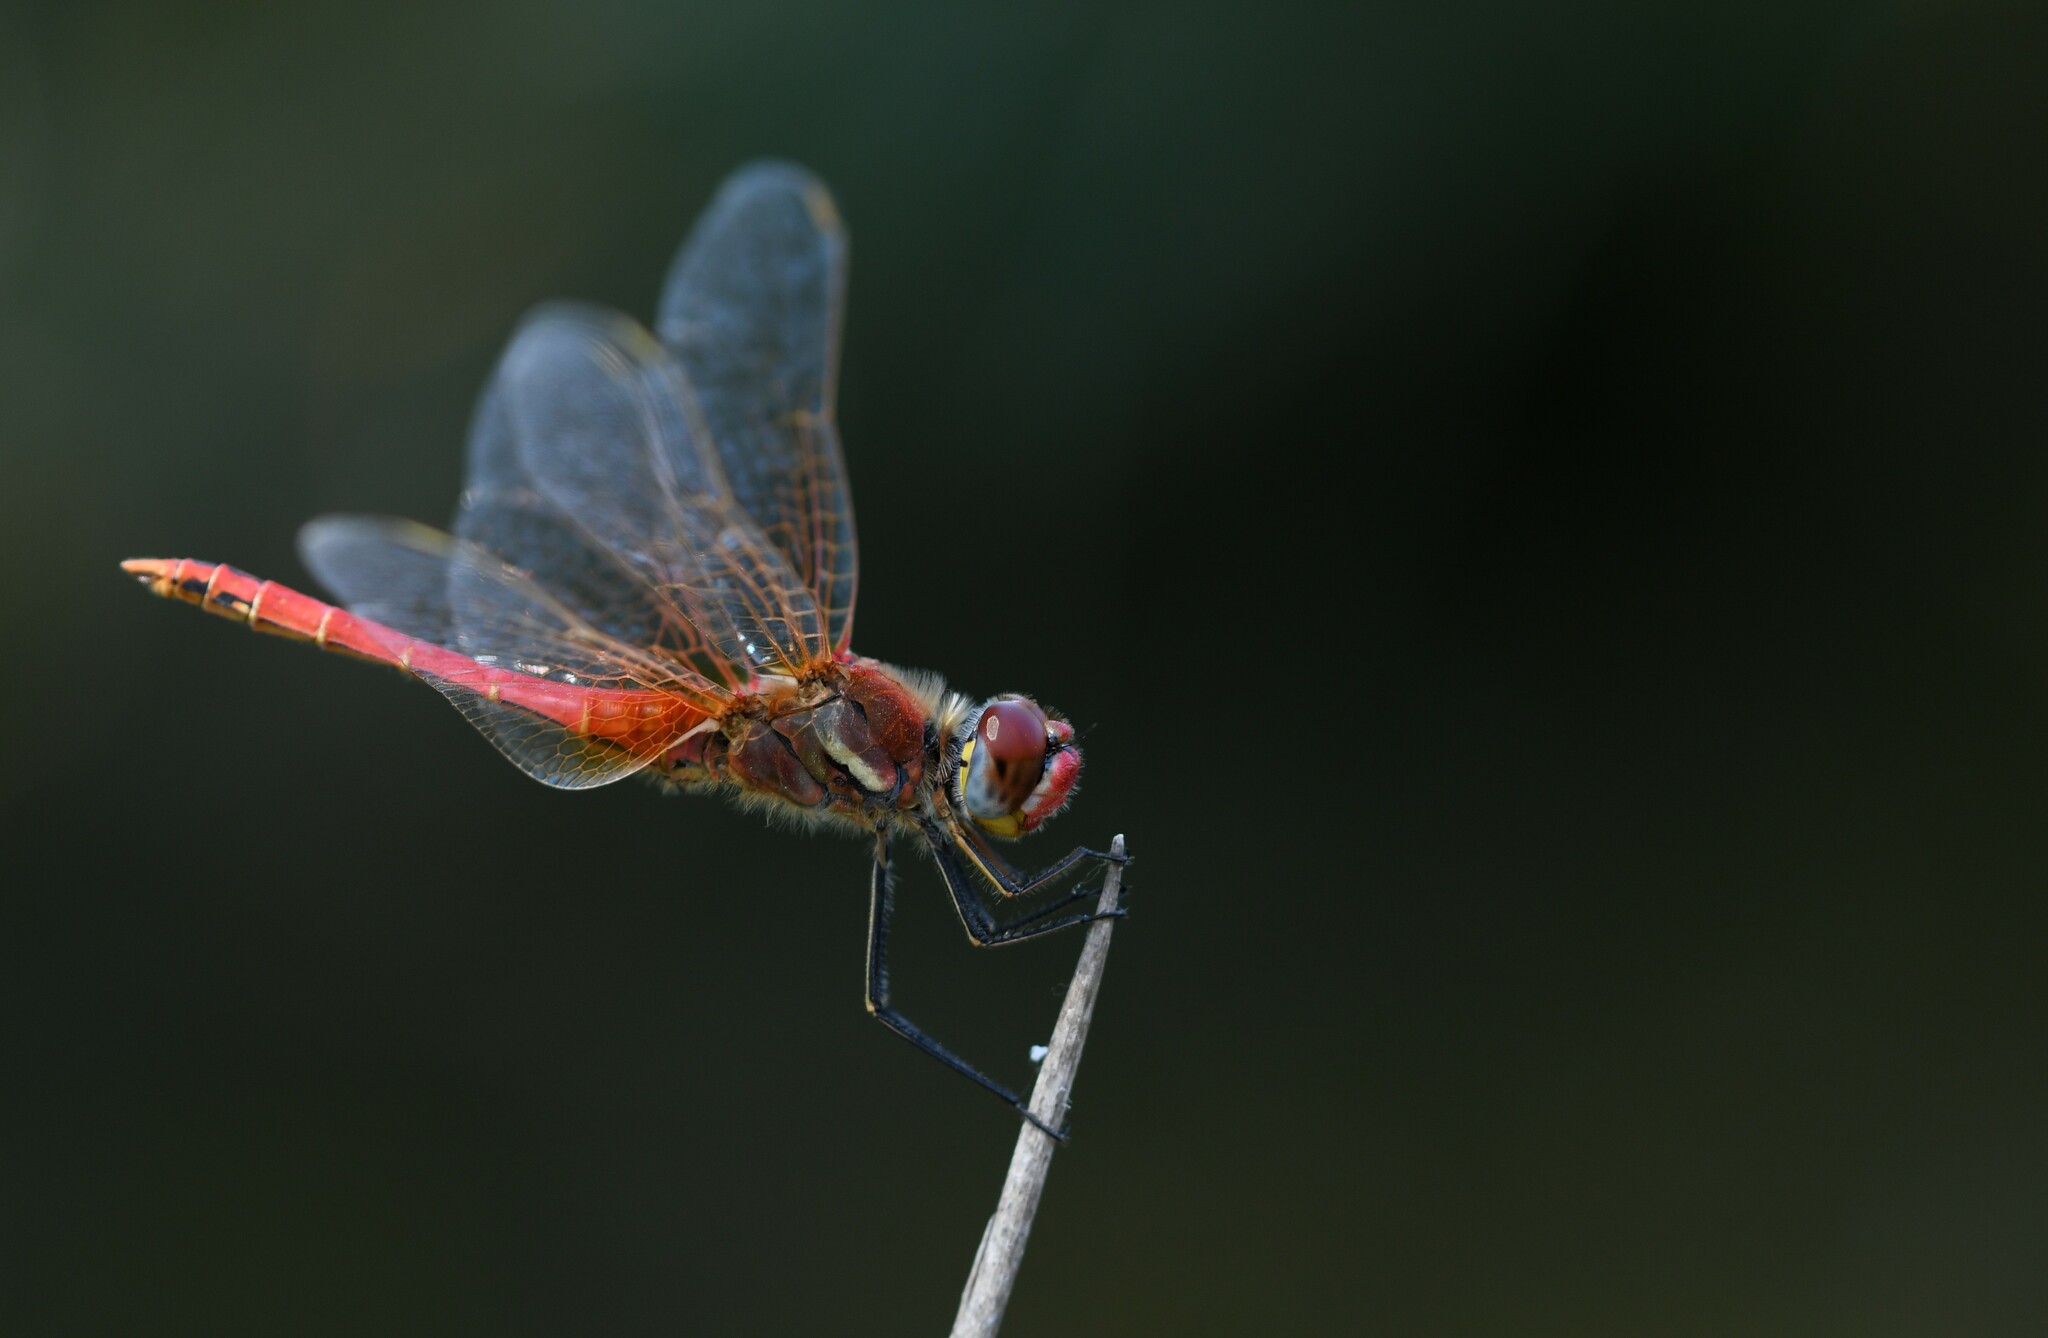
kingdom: Animalia
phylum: Arthropoda
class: Insecta
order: Odonata
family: Libellulidae
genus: Sympetrum
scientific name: Sympetrum fonscolombii
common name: Red-veined darter
